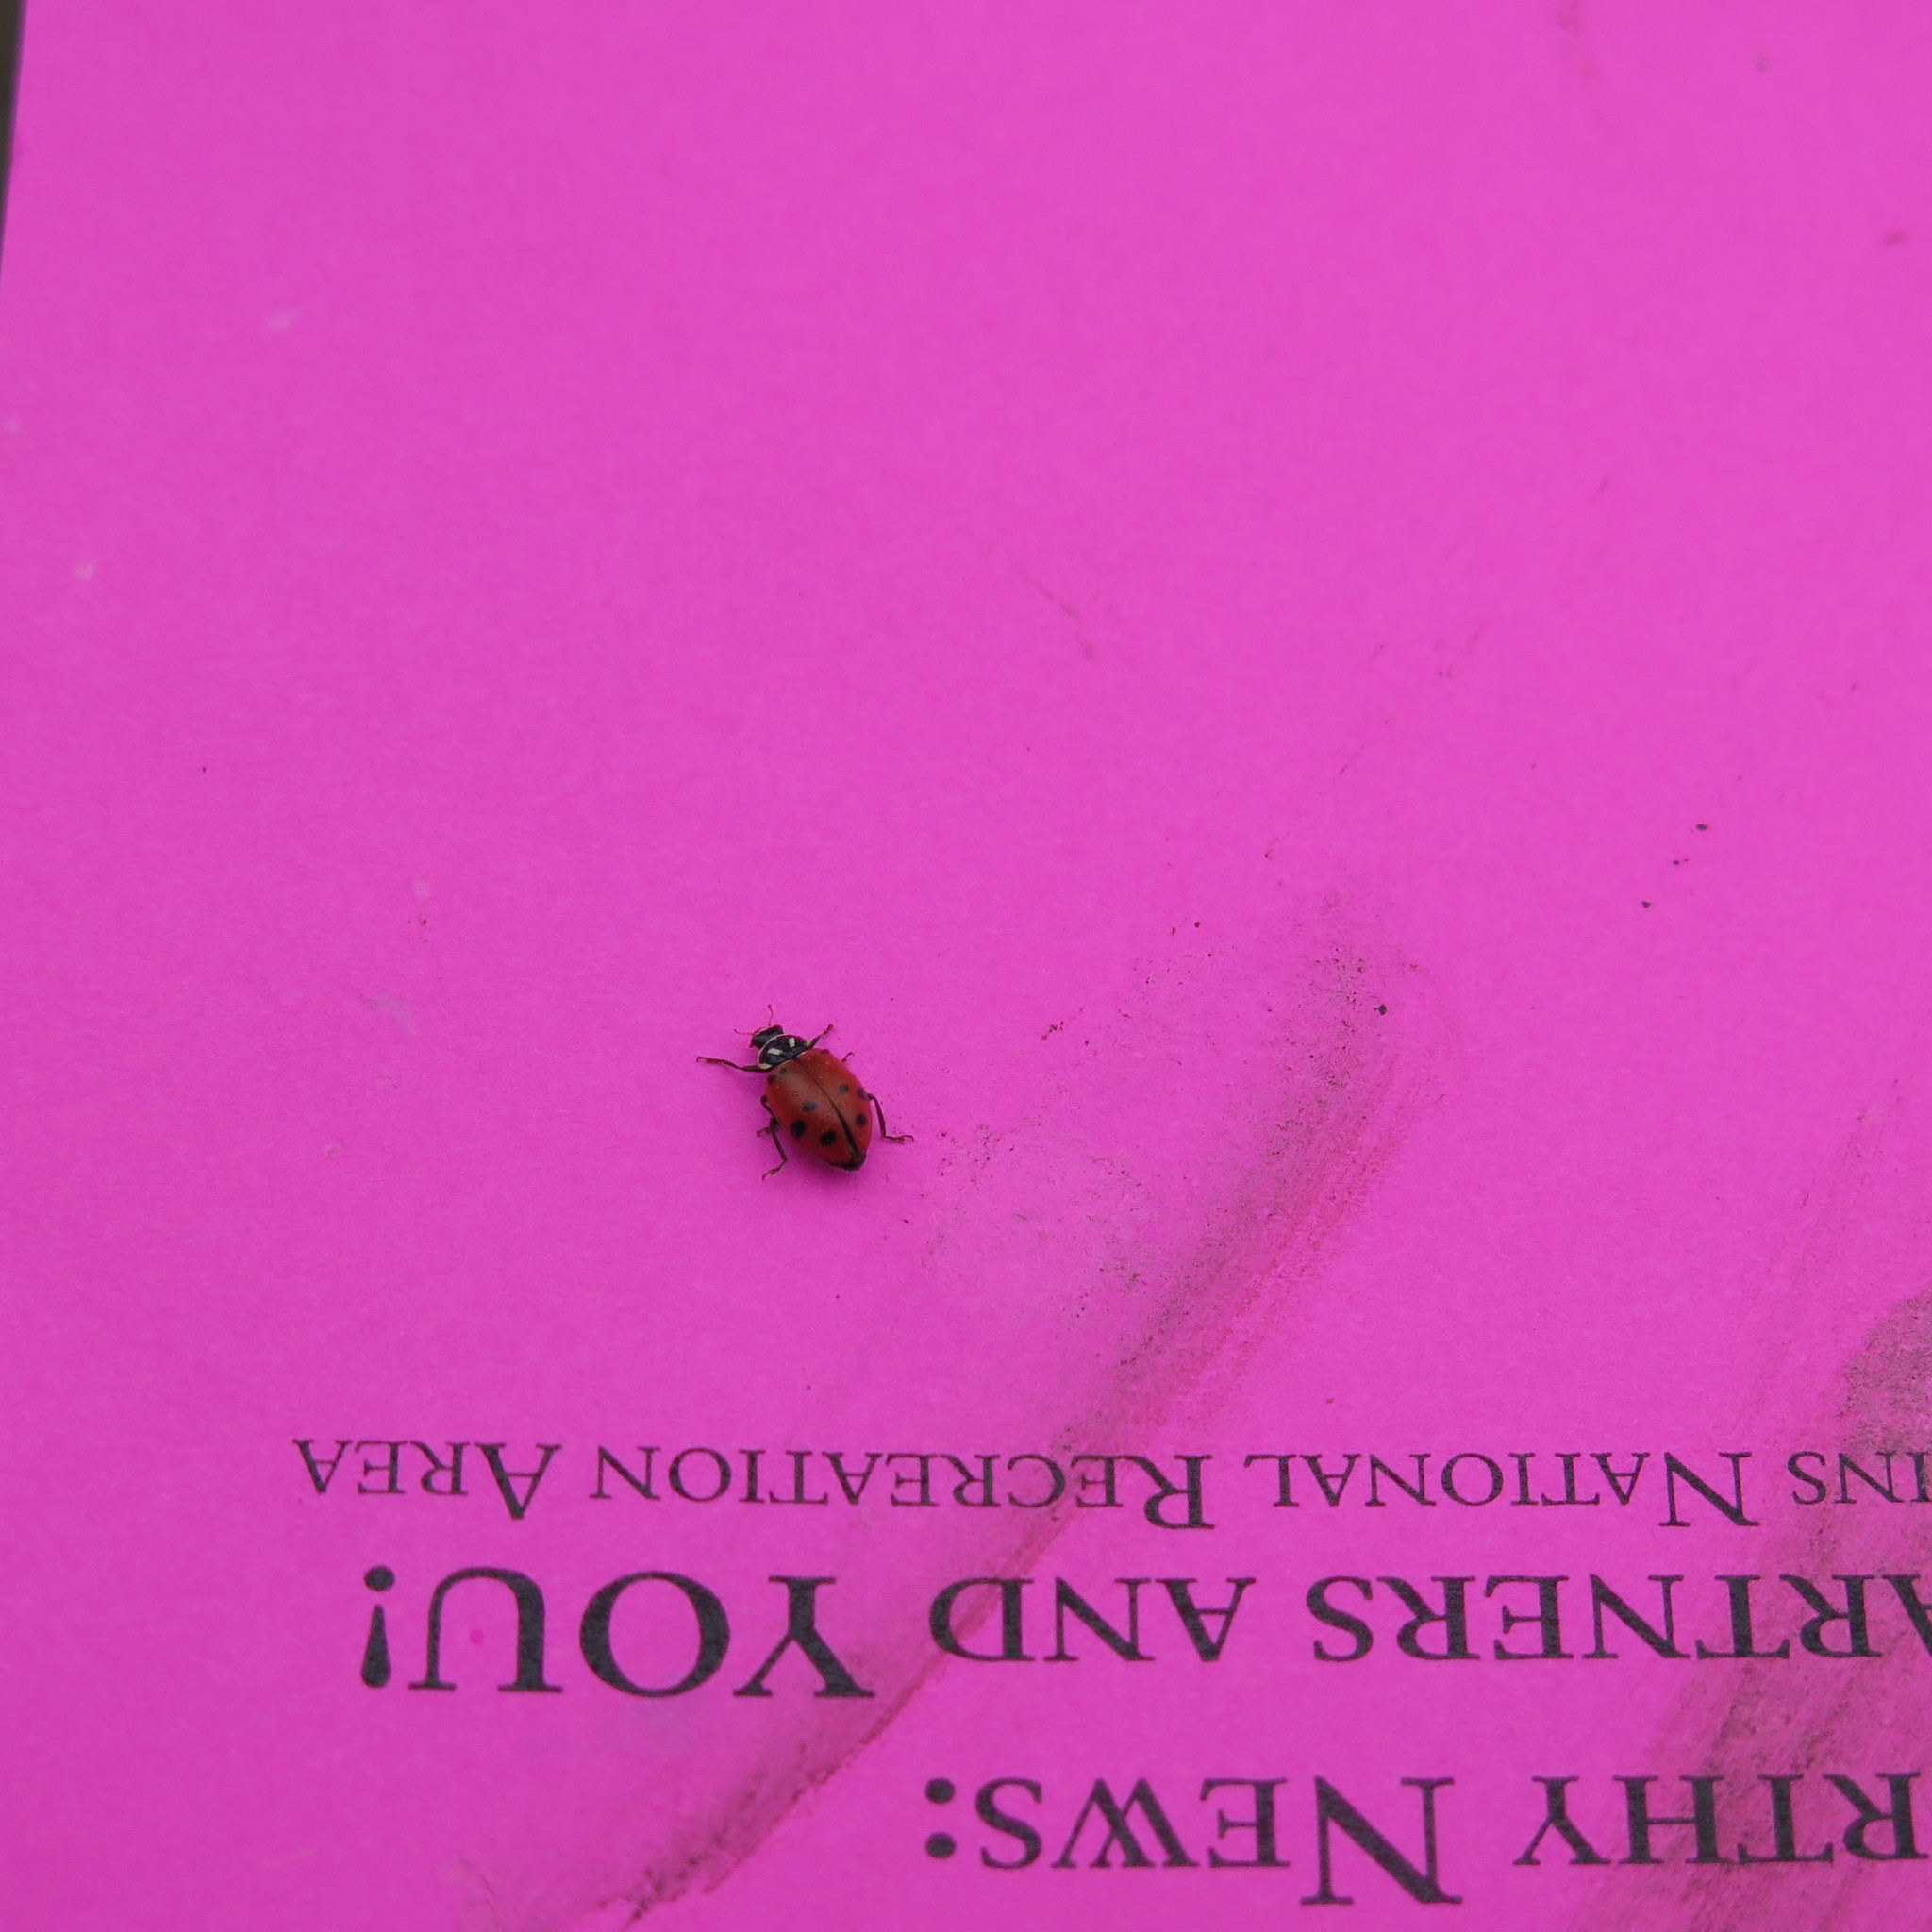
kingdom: Animalia
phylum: Arthropoda
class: Insecta
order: Coleoptera
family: Coccinellidae
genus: Hippodamia
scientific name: Hippodamia convergens
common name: Convergent lady beetle
